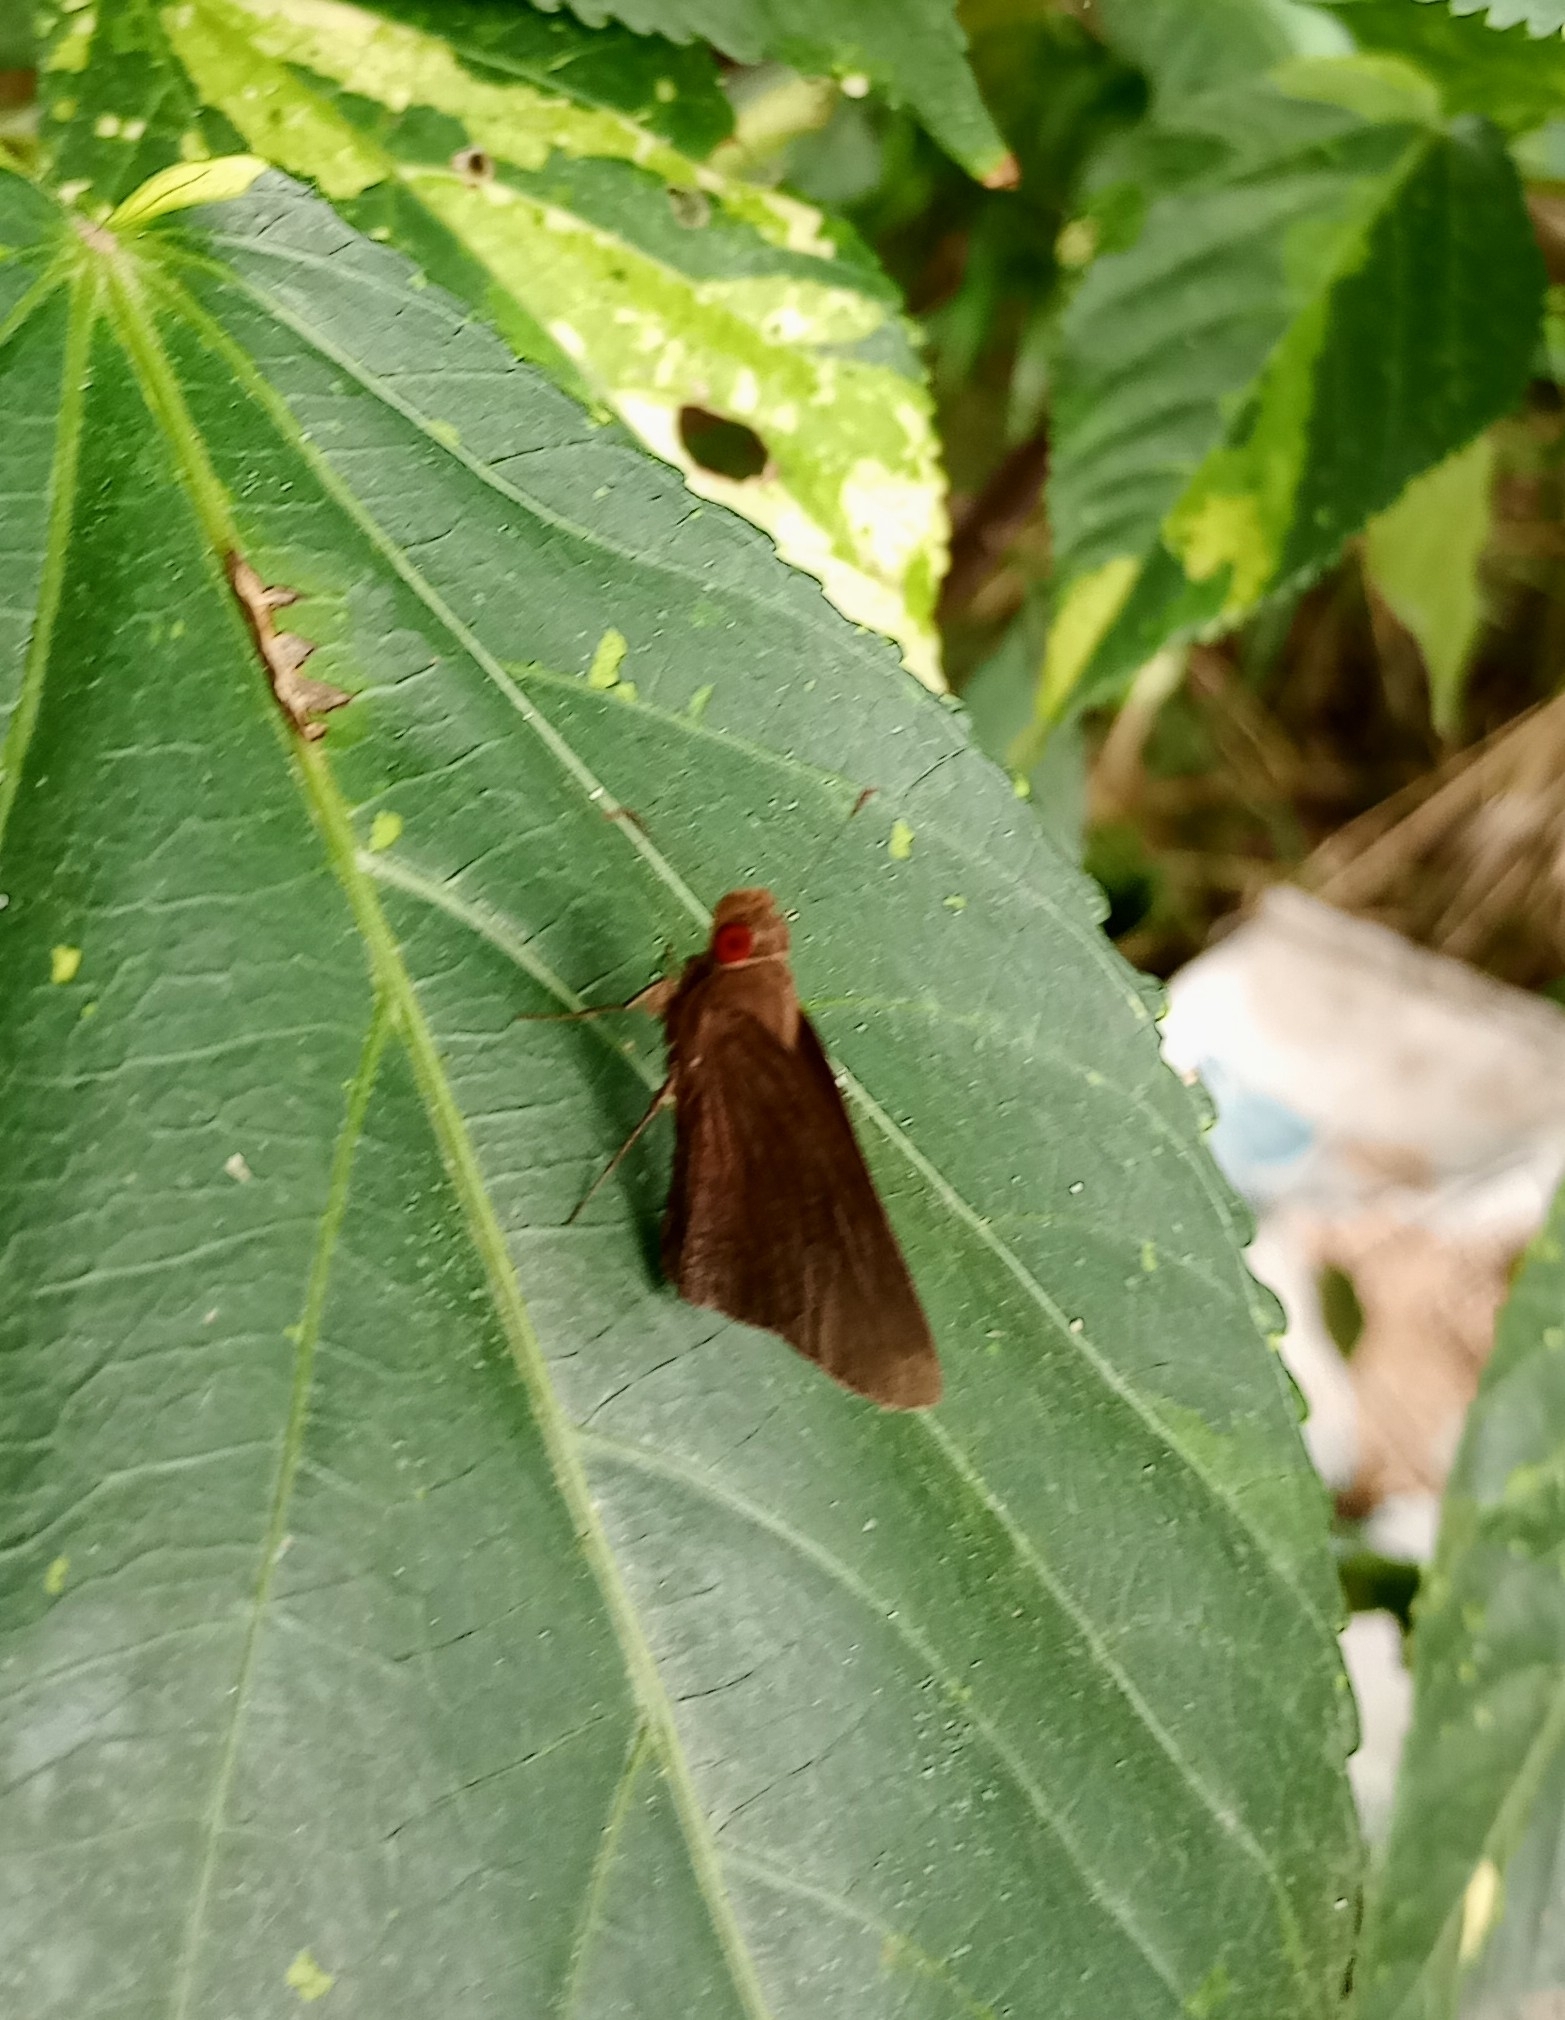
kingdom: Animalia
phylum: Arthropoda
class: Insecta
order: Lepidoptera
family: Hesperiidae
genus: Matapa
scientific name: Matapa aria
